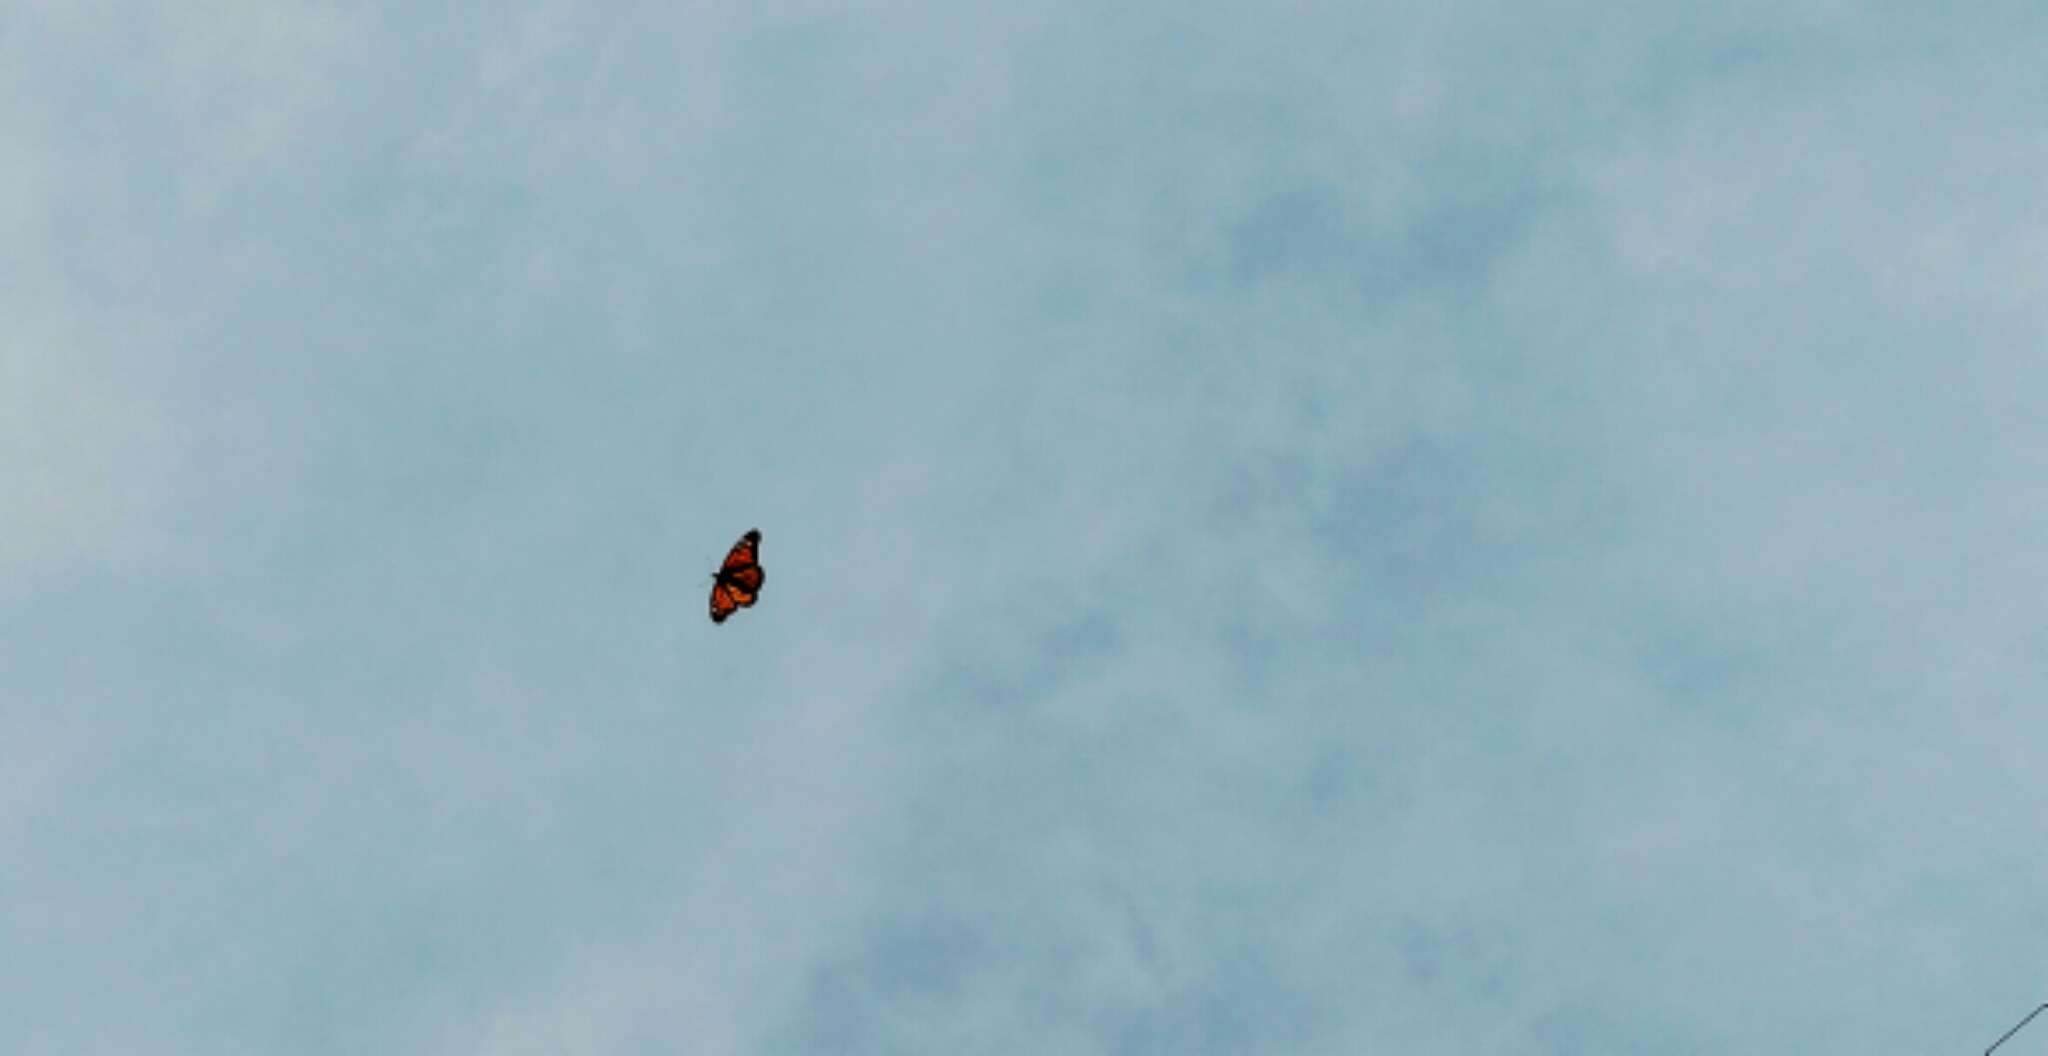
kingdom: Animalia
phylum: Arthropoda
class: Insecta
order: Lepidoptera
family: Nymphalidae
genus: Danaus
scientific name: Danaus plexippus
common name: Monarch
